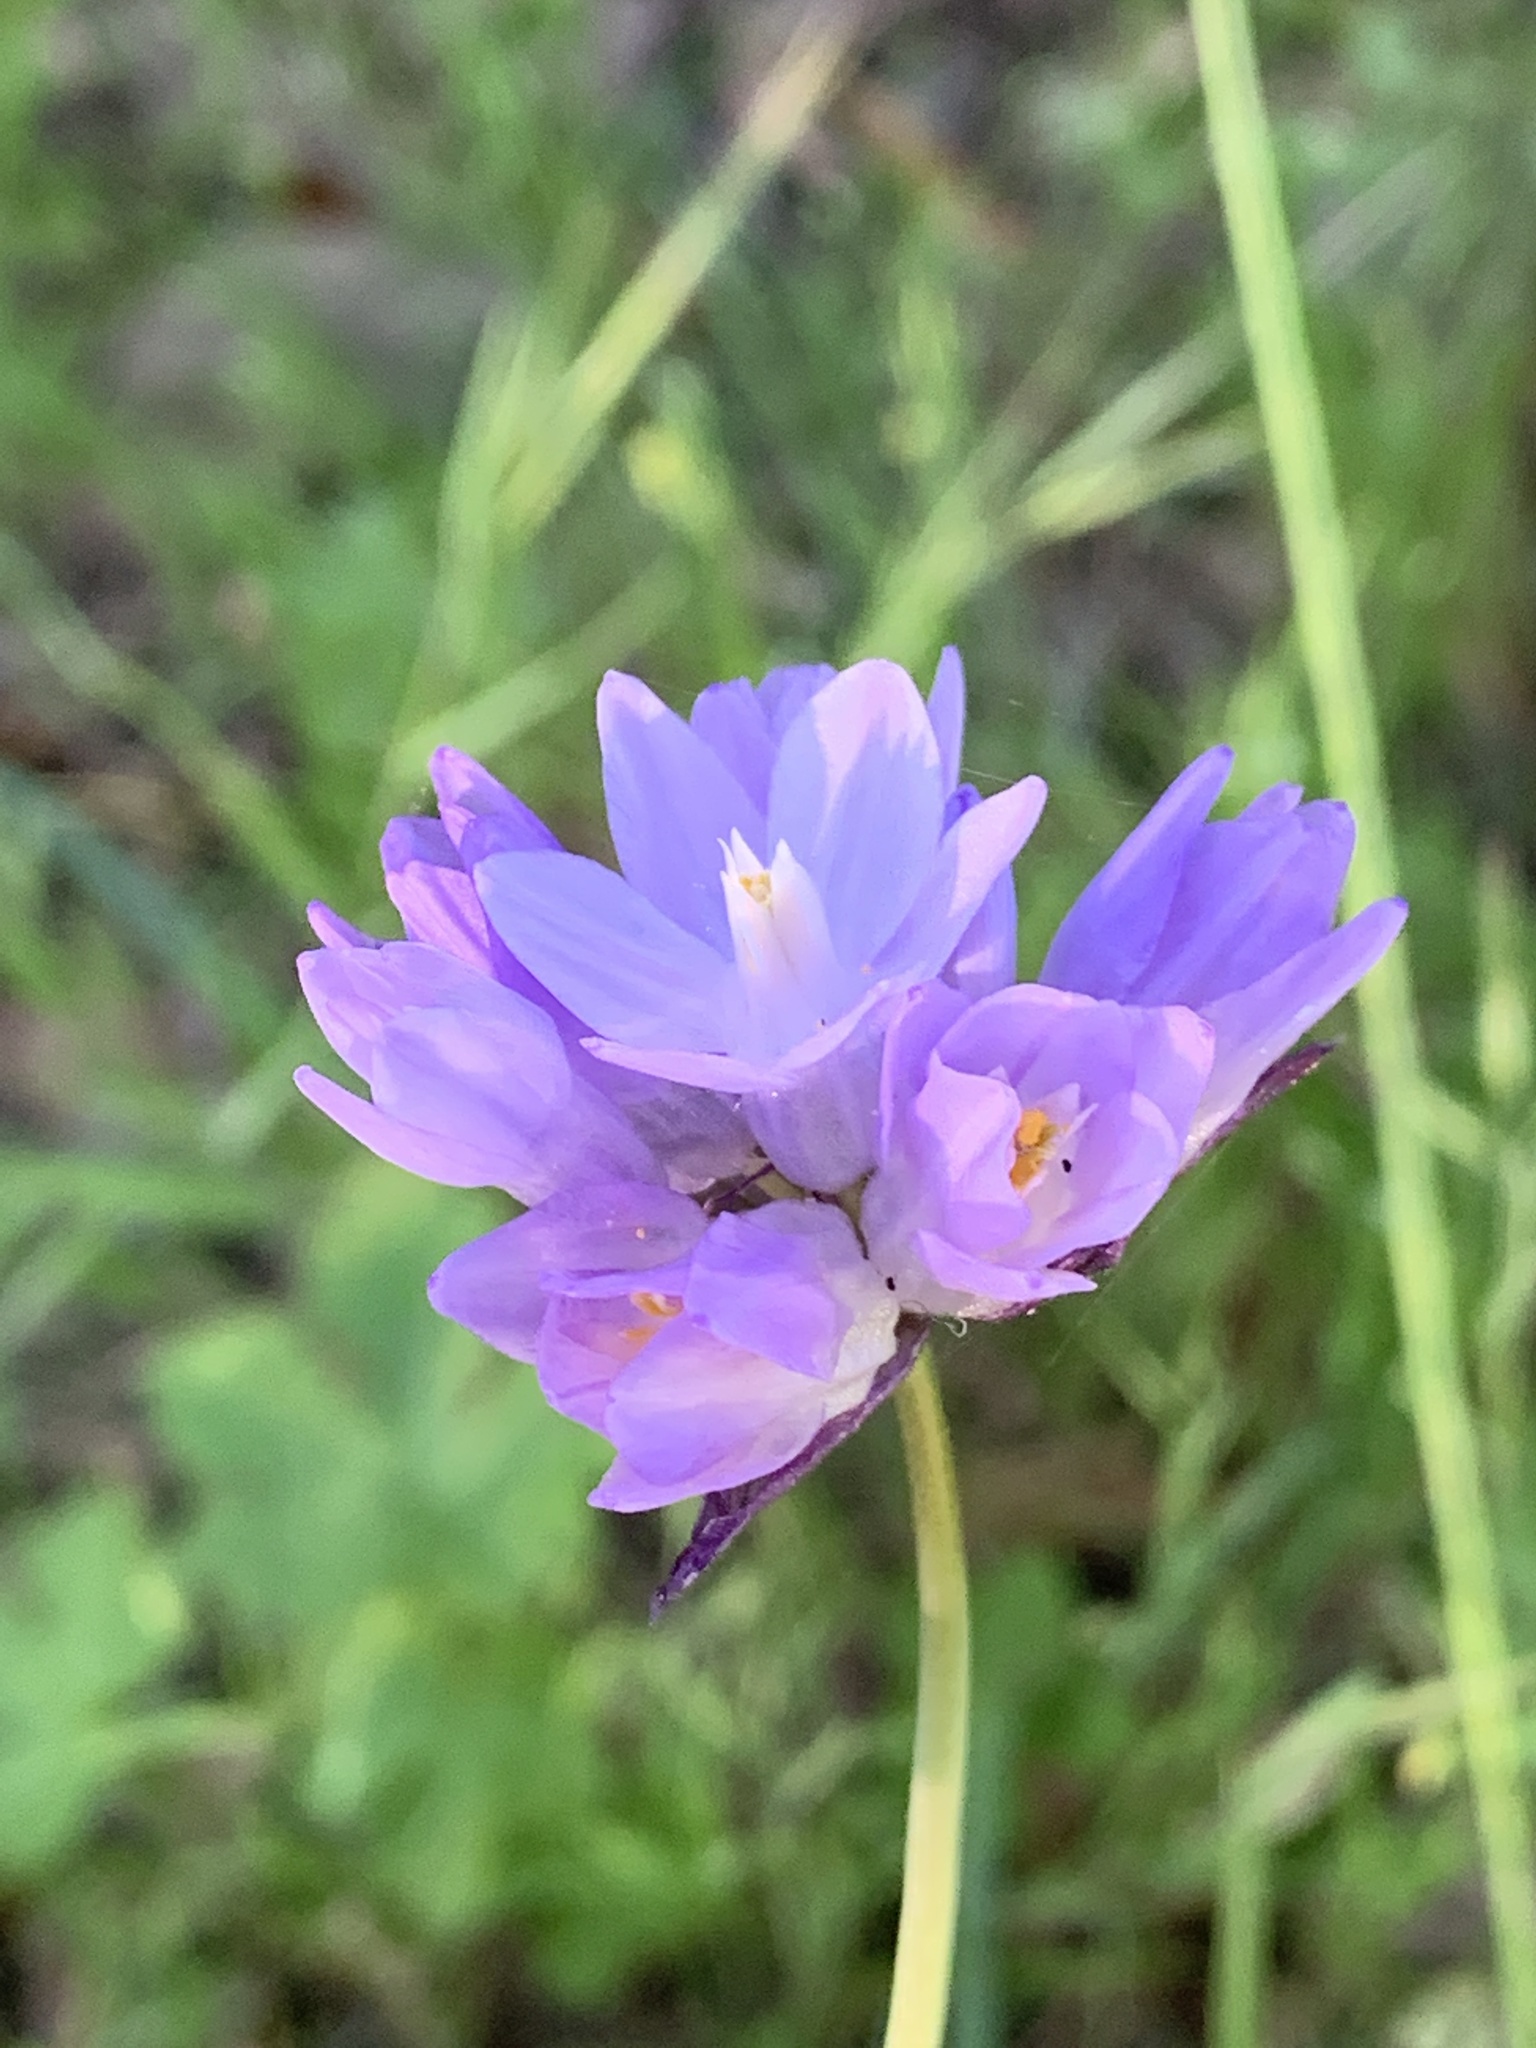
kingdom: Plantae
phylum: Tracheophyta
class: Liliopsida
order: Asparagales
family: Asparagaceae
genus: Dipterostemon
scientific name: Dipterostemon capitatus
